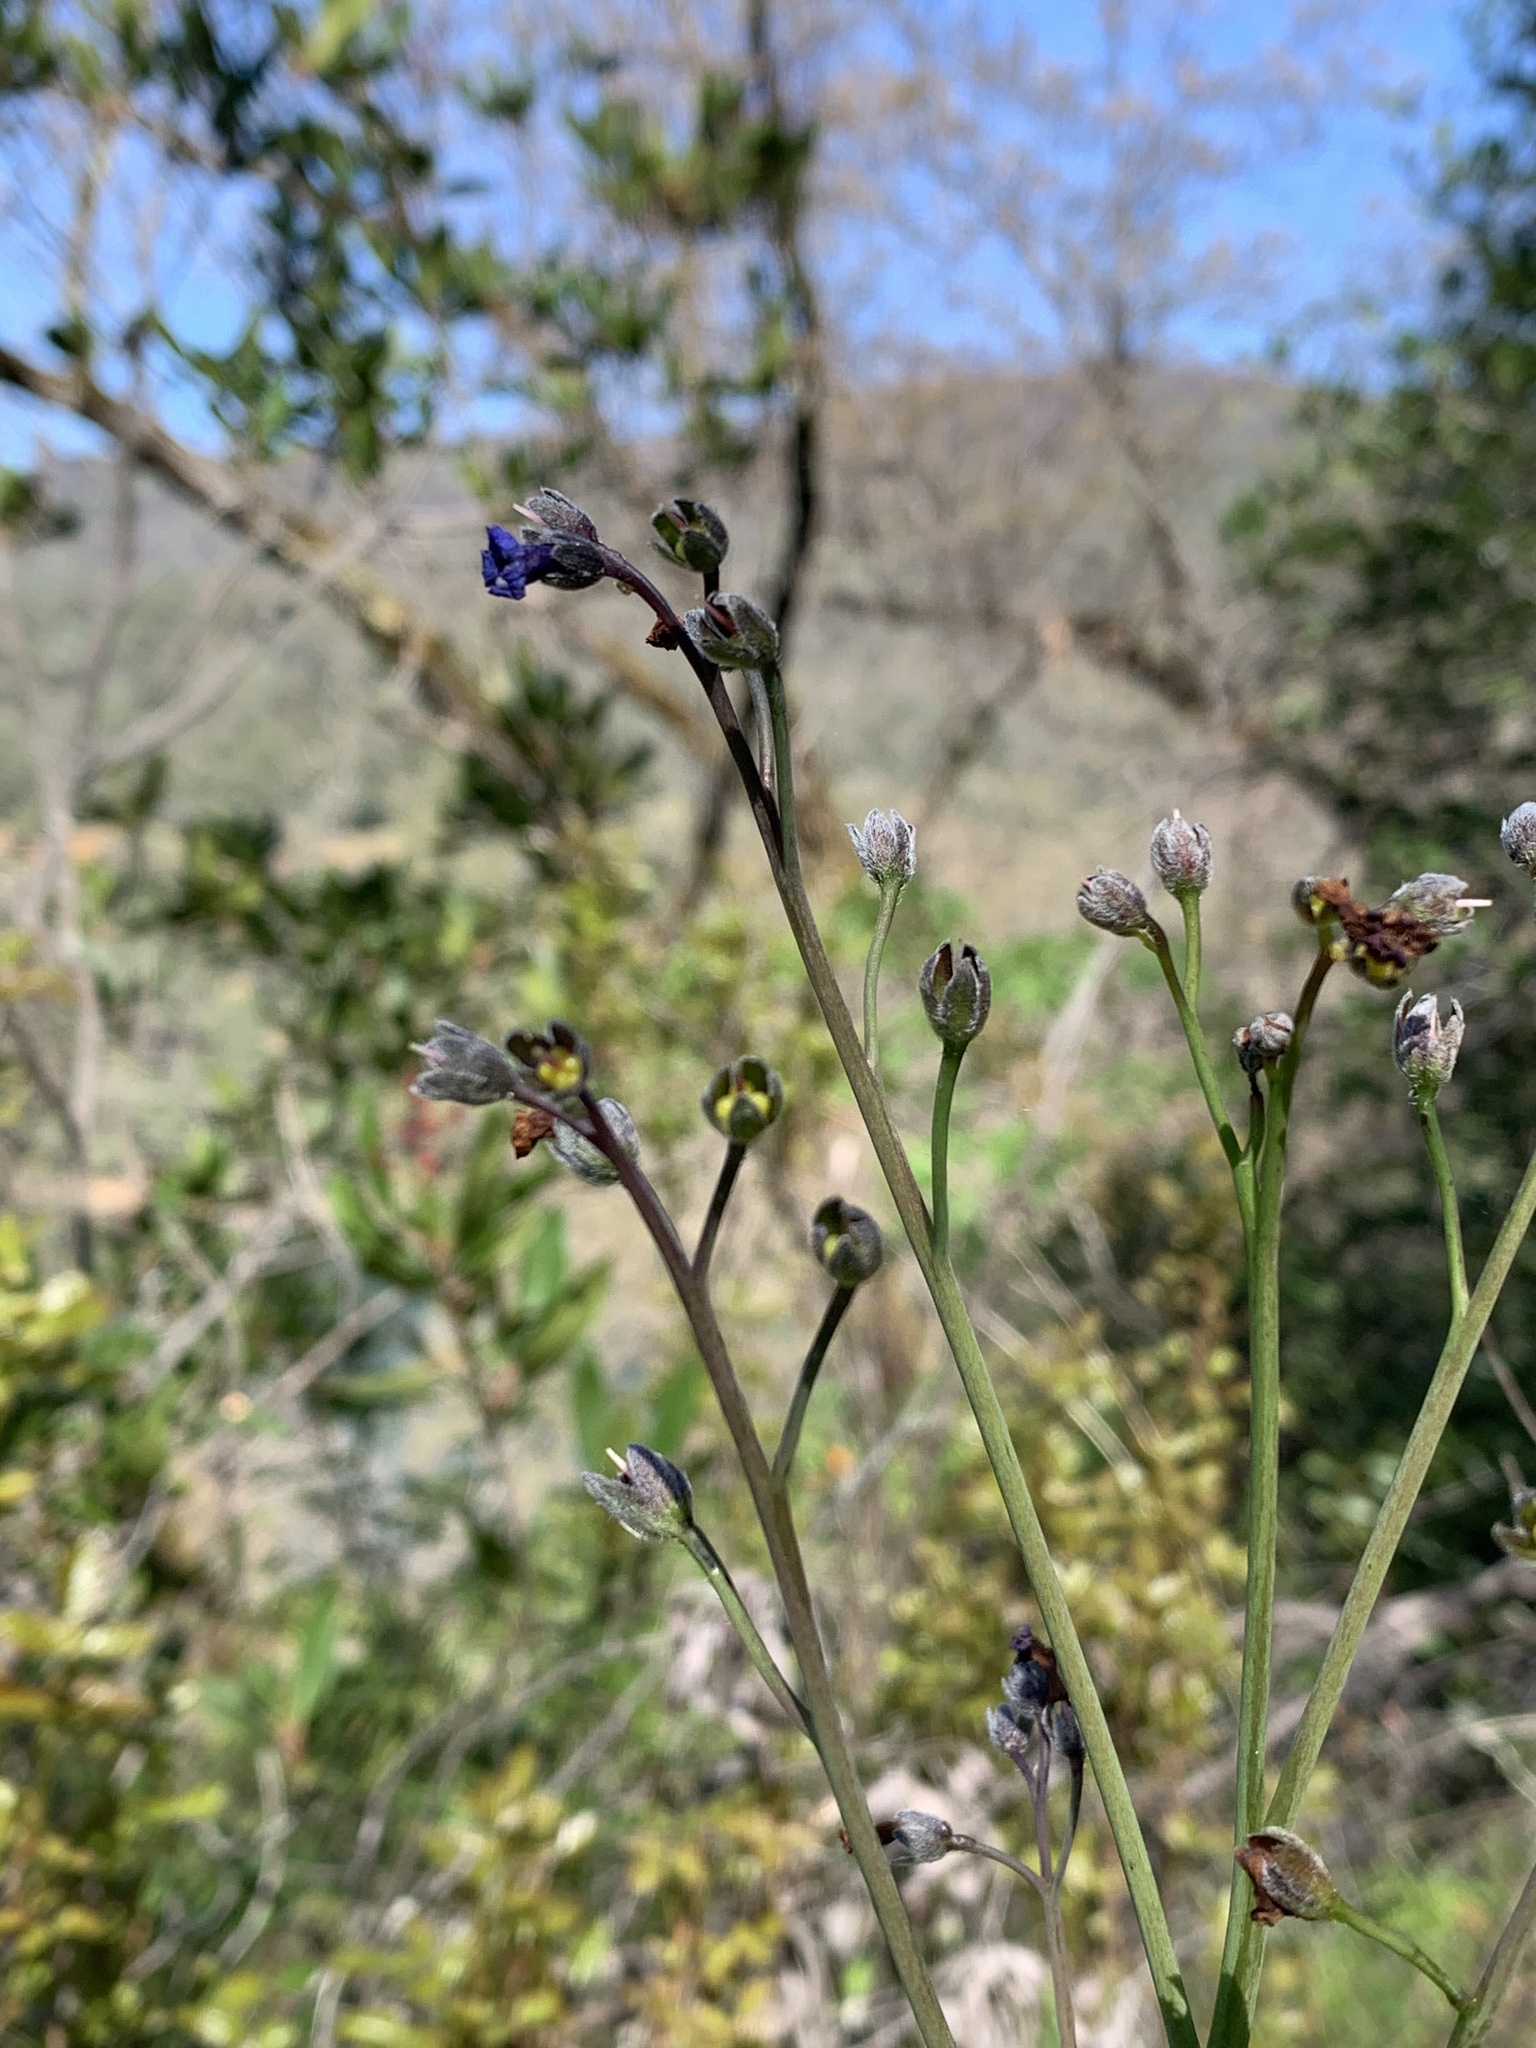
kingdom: Plantae
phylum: Tracheophyta
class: Magnoliopsida
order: Boraginales
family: Boraginaceae
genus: Adelinia
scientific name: Adelinia grande
